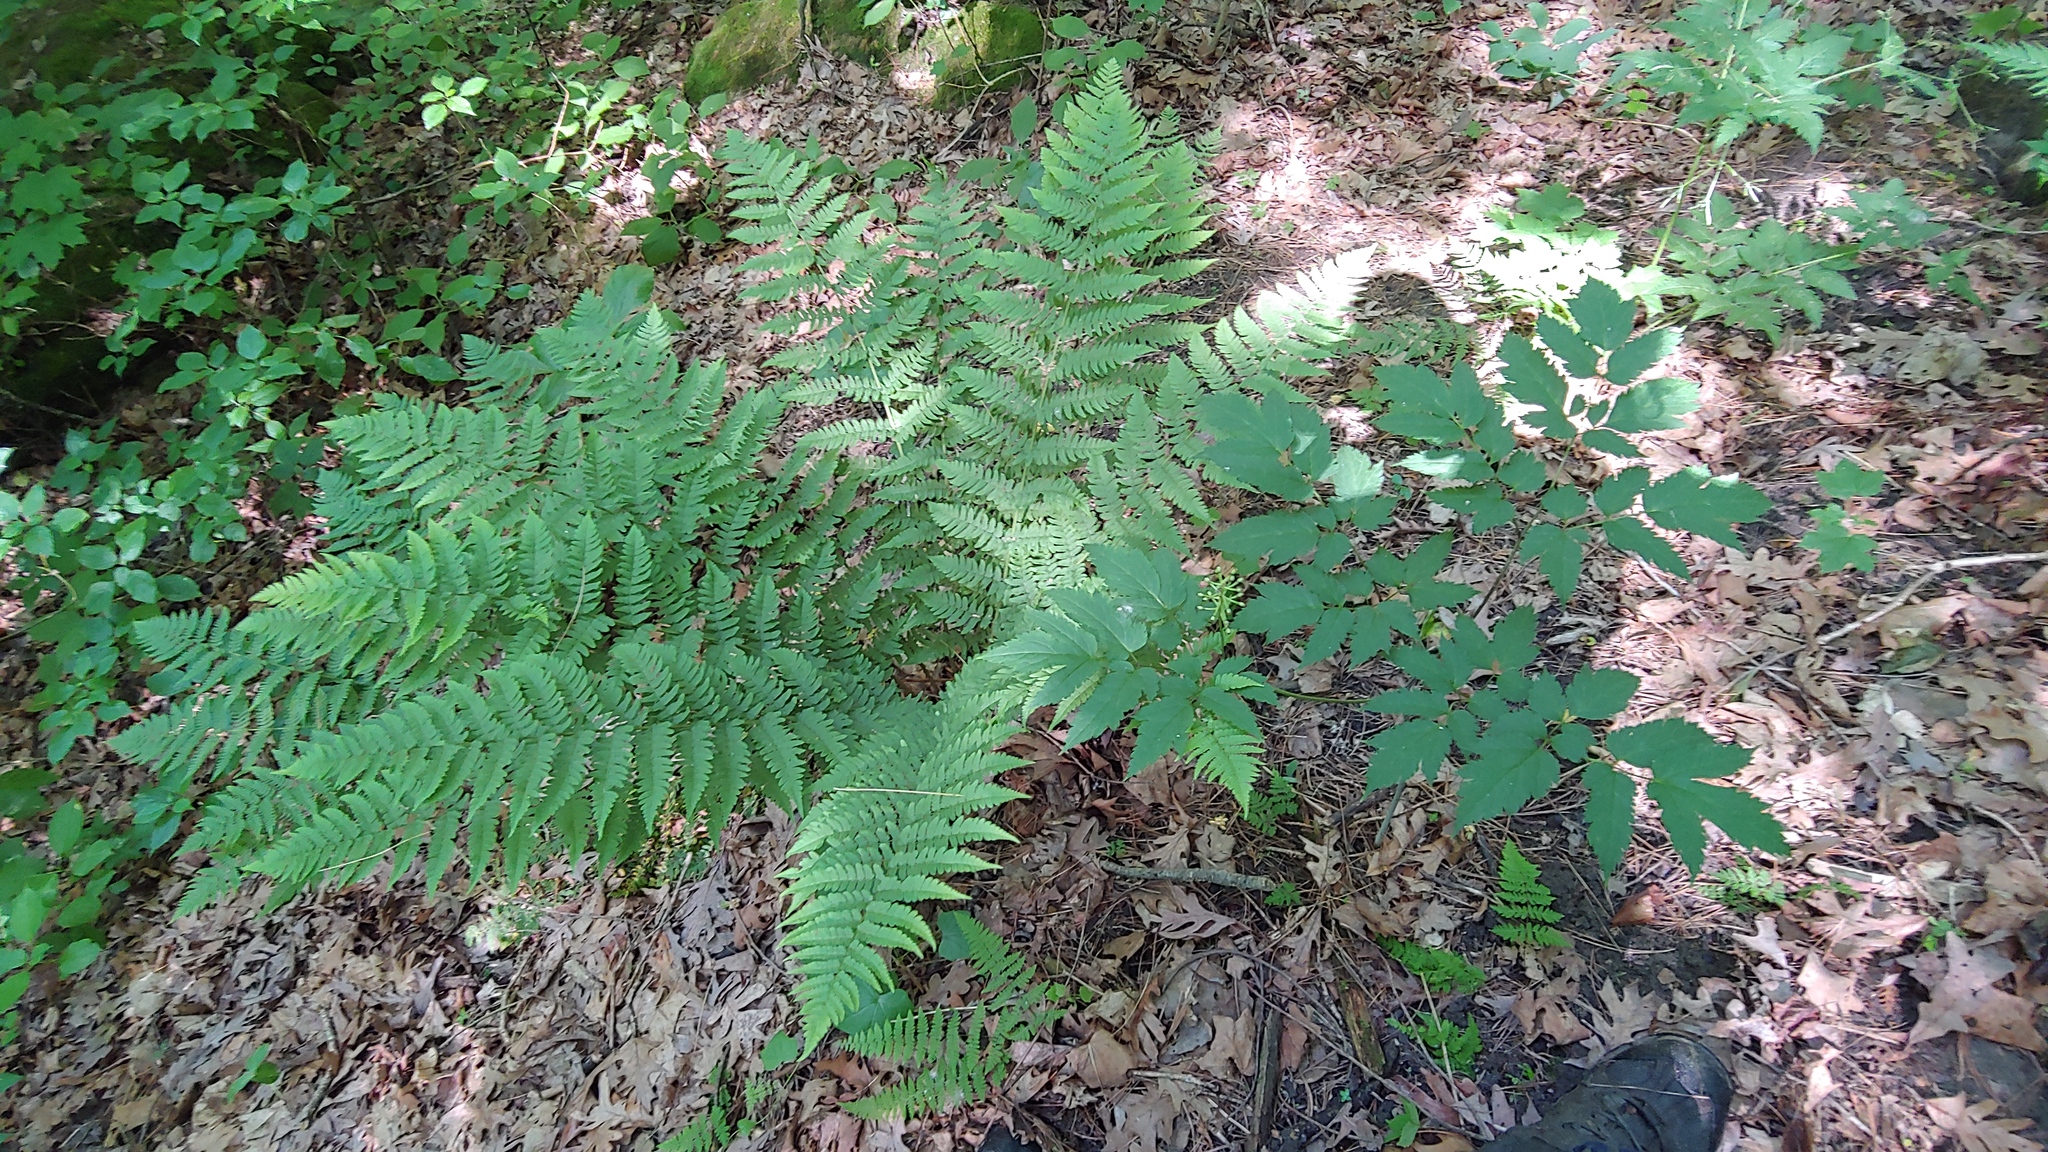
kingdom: Plantae
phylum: Tracheophyta
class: Polypodiopsida
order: Polypodiales
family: Dryopteridaceae
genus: Dryopteris
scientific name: Dryopteris marginalis
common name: Marginal wood fern
